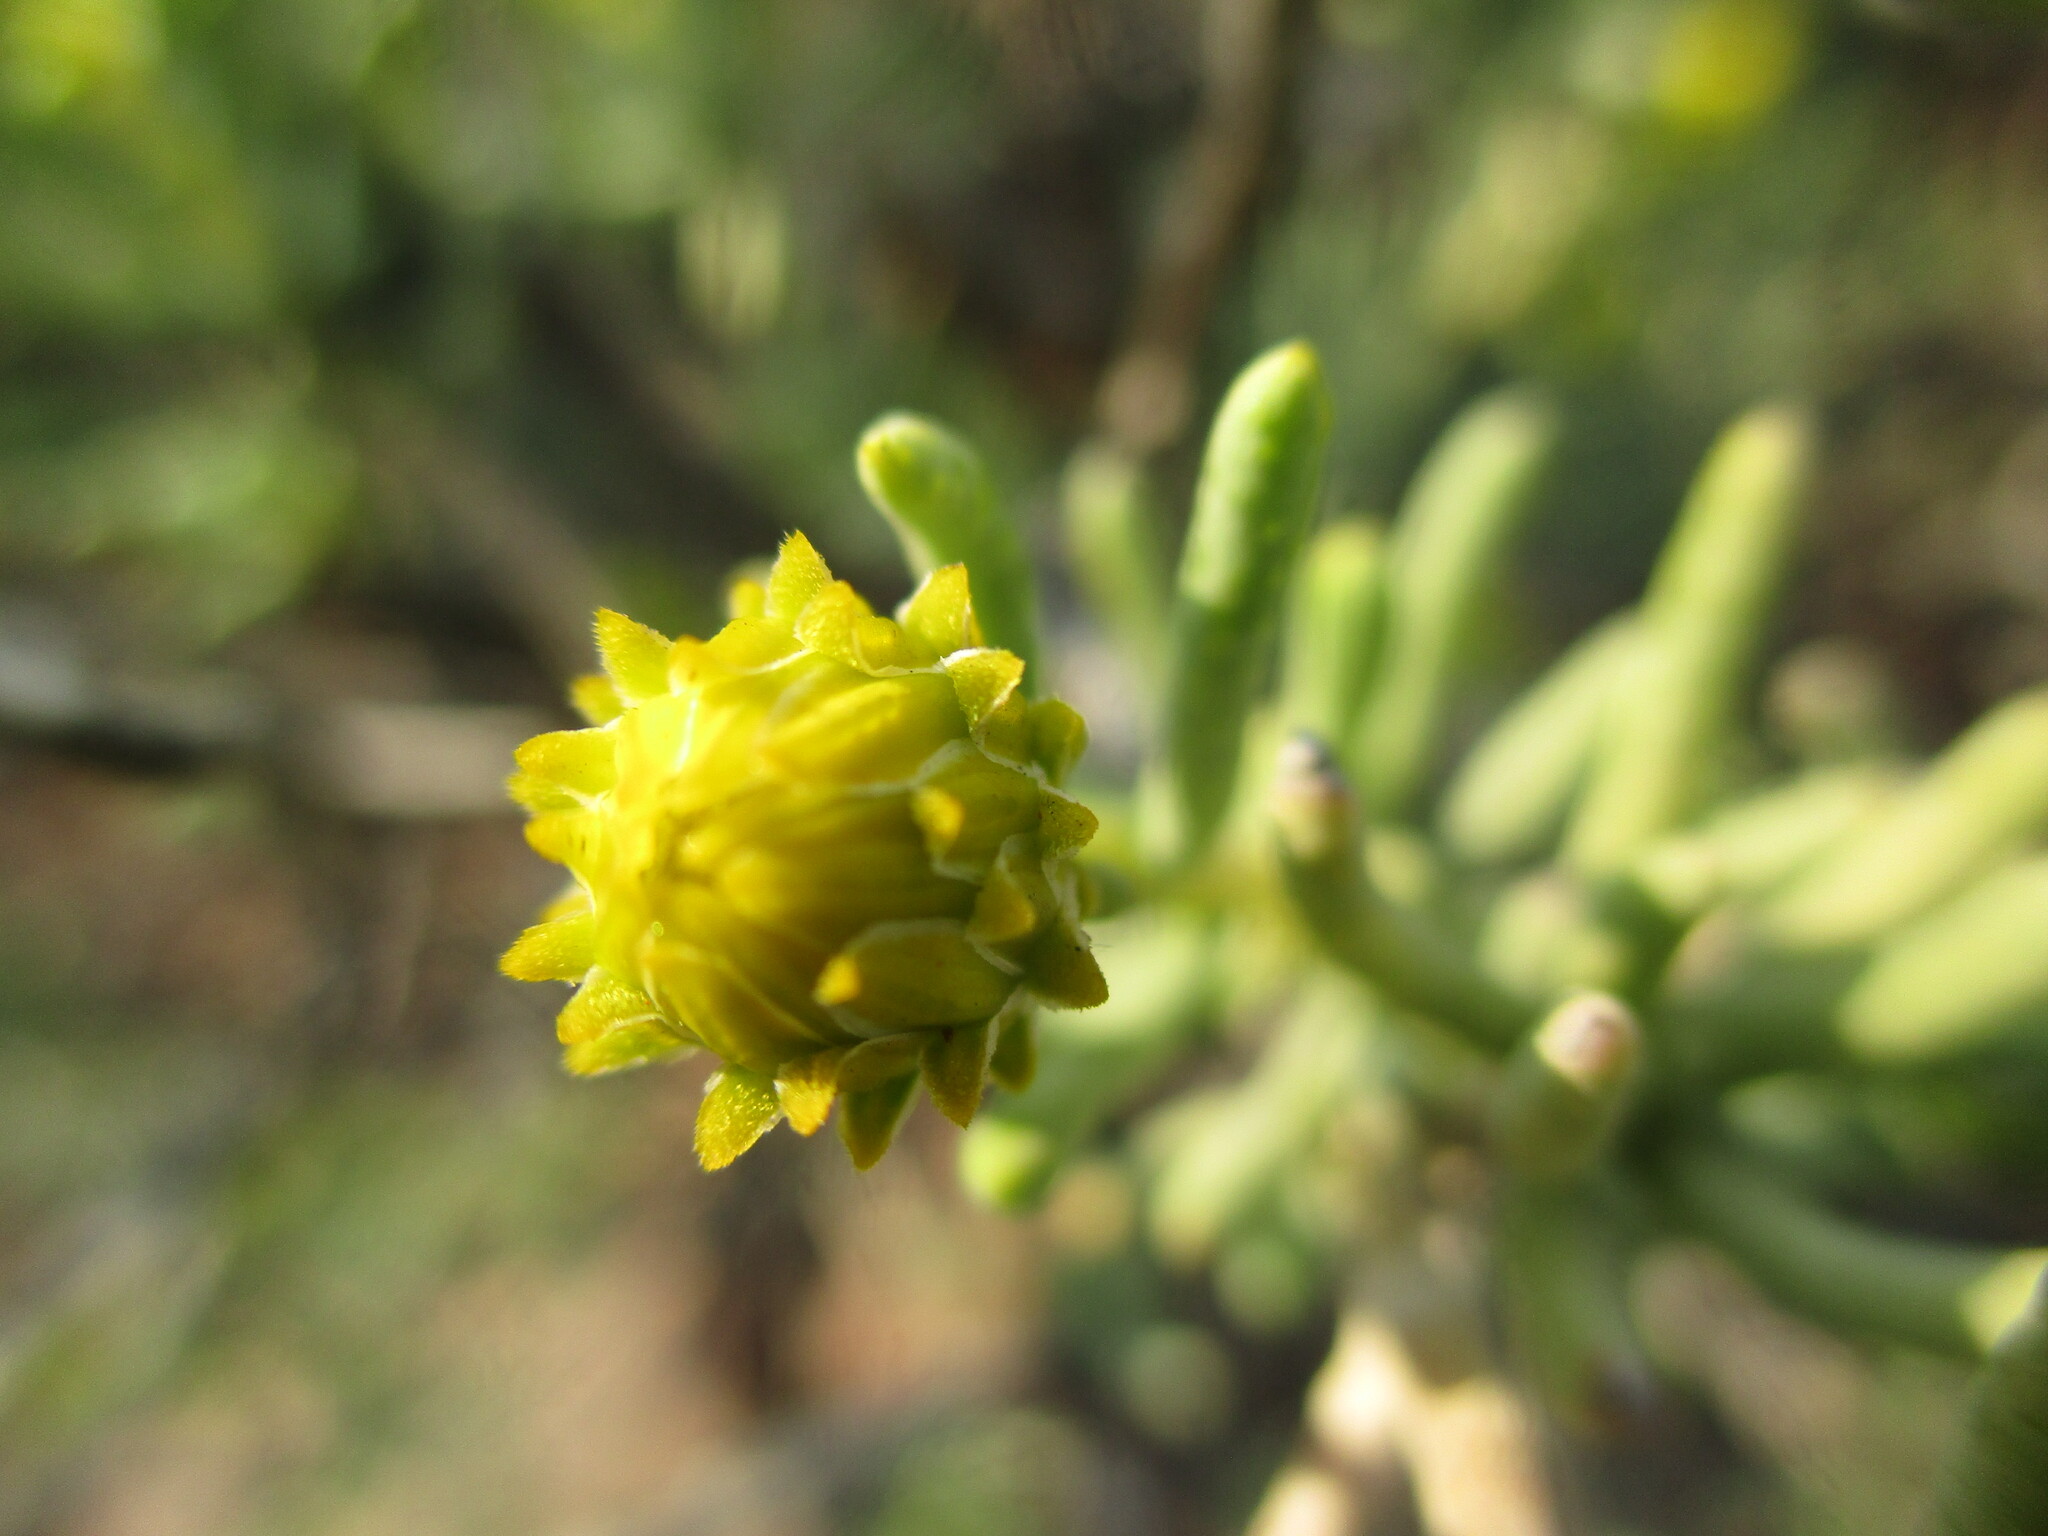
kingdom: Plantae
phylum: Tracheophyta
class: Magnoliopsida
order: Asterales
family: Asteraceae
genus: Pteronia
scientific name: Pteronia rangei
